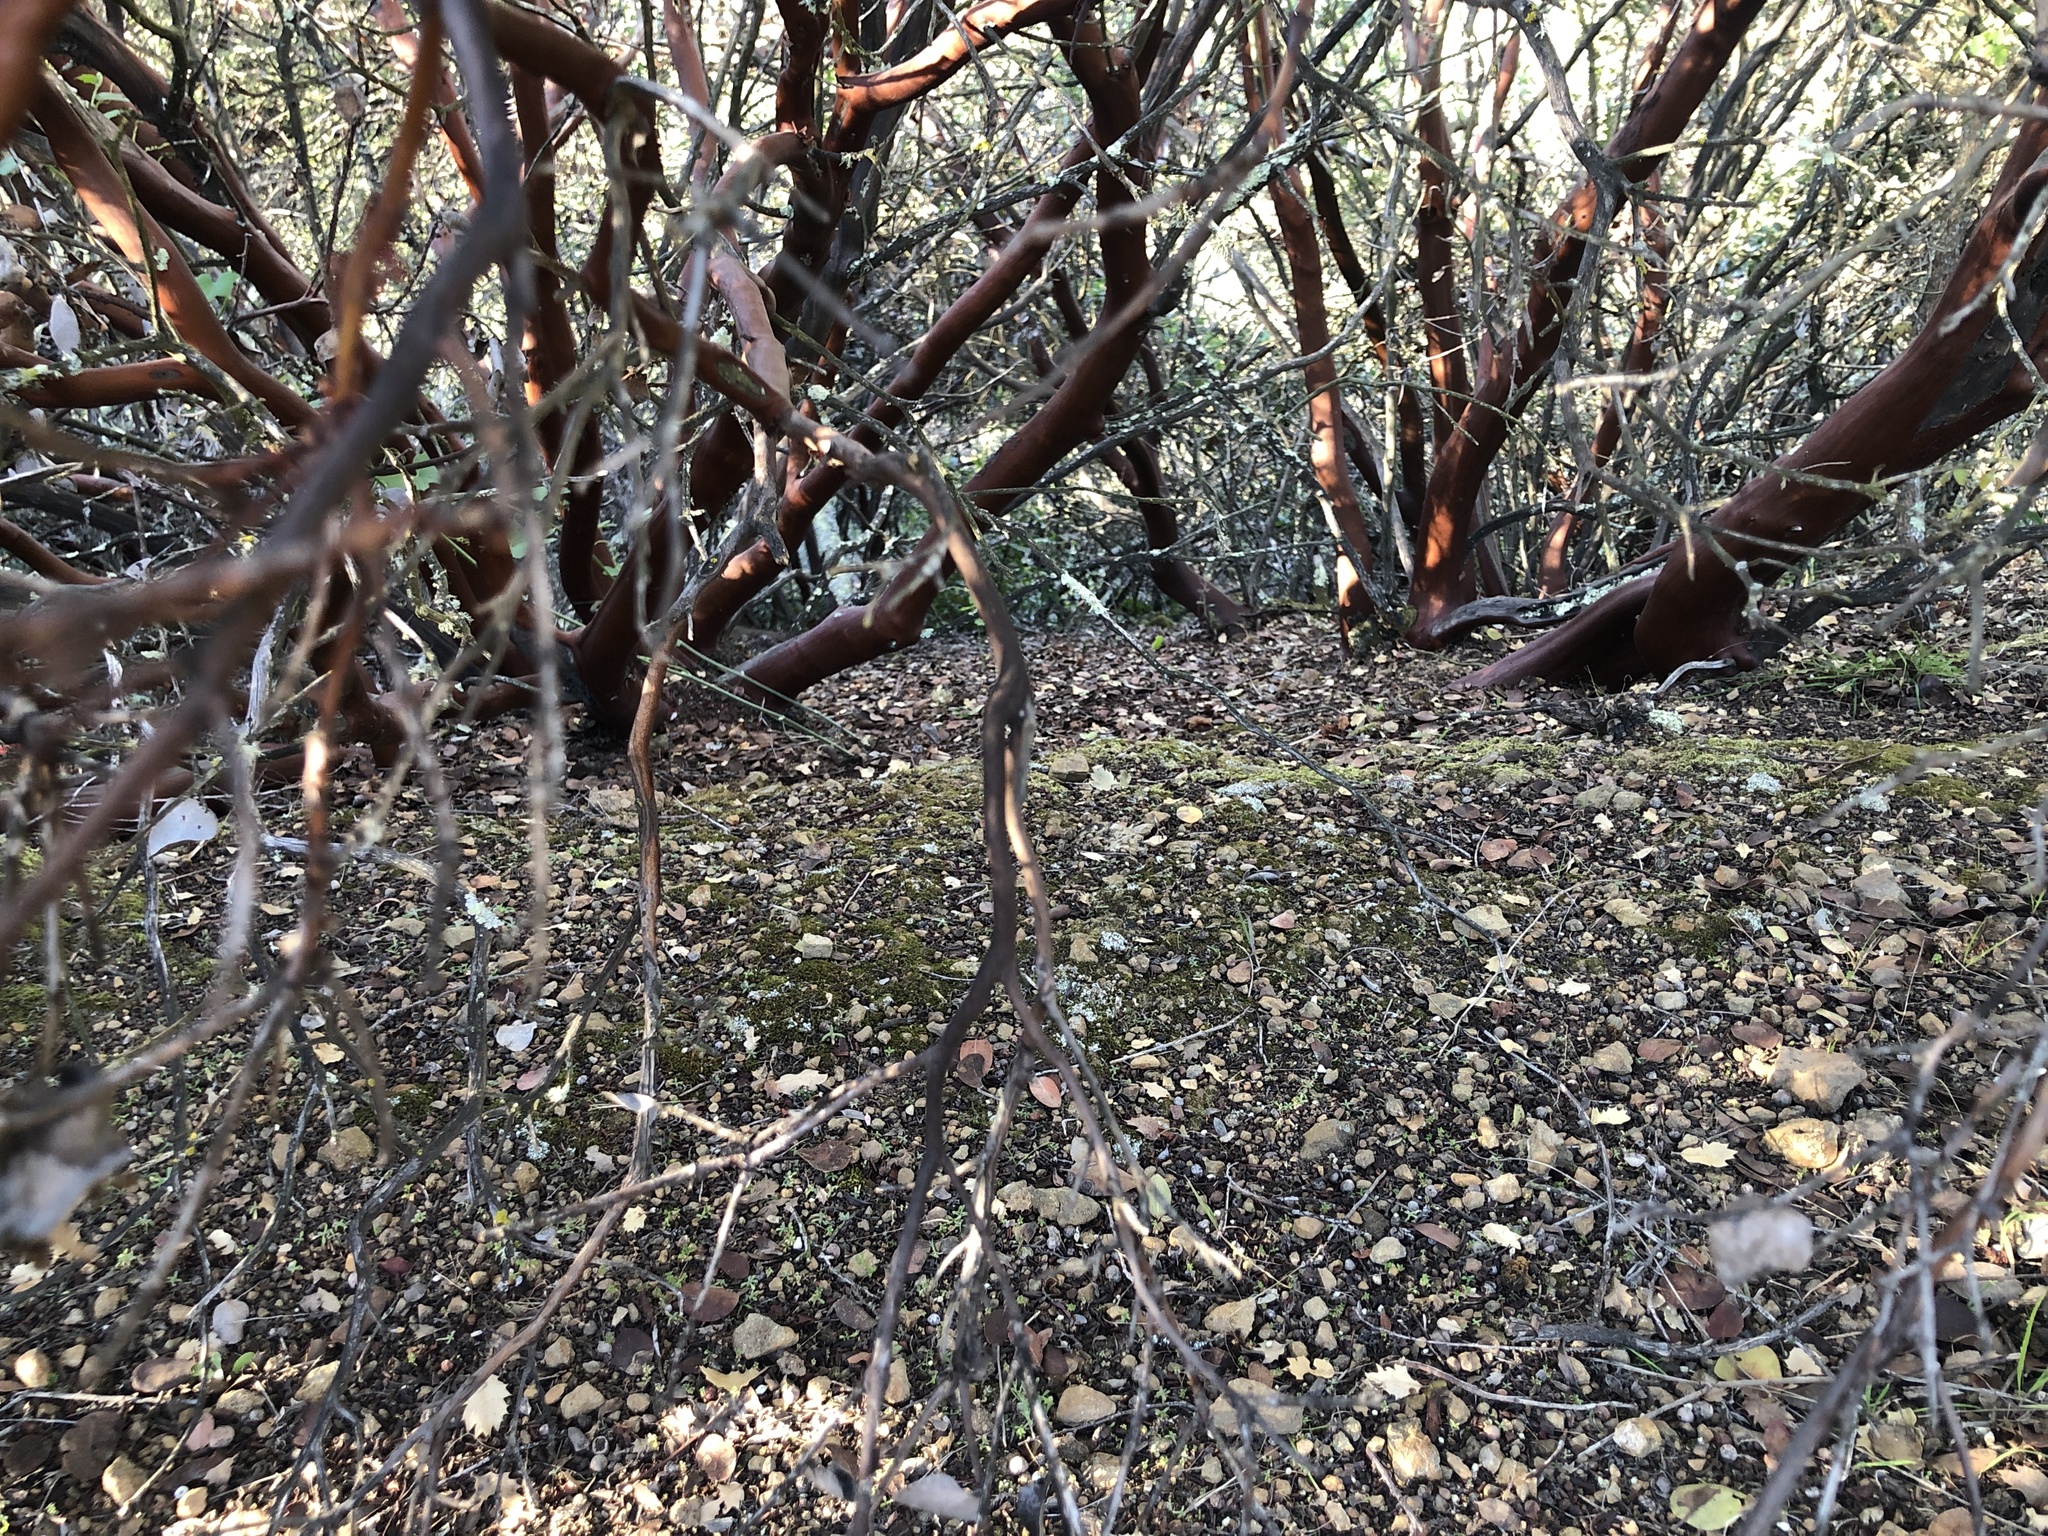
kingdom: Plantae
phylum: Tracheophyta
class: Magnoliopsida
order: Ericales
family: Ericaceae
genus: Arctostaphylos
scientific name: Arctostaphylos crustacea
